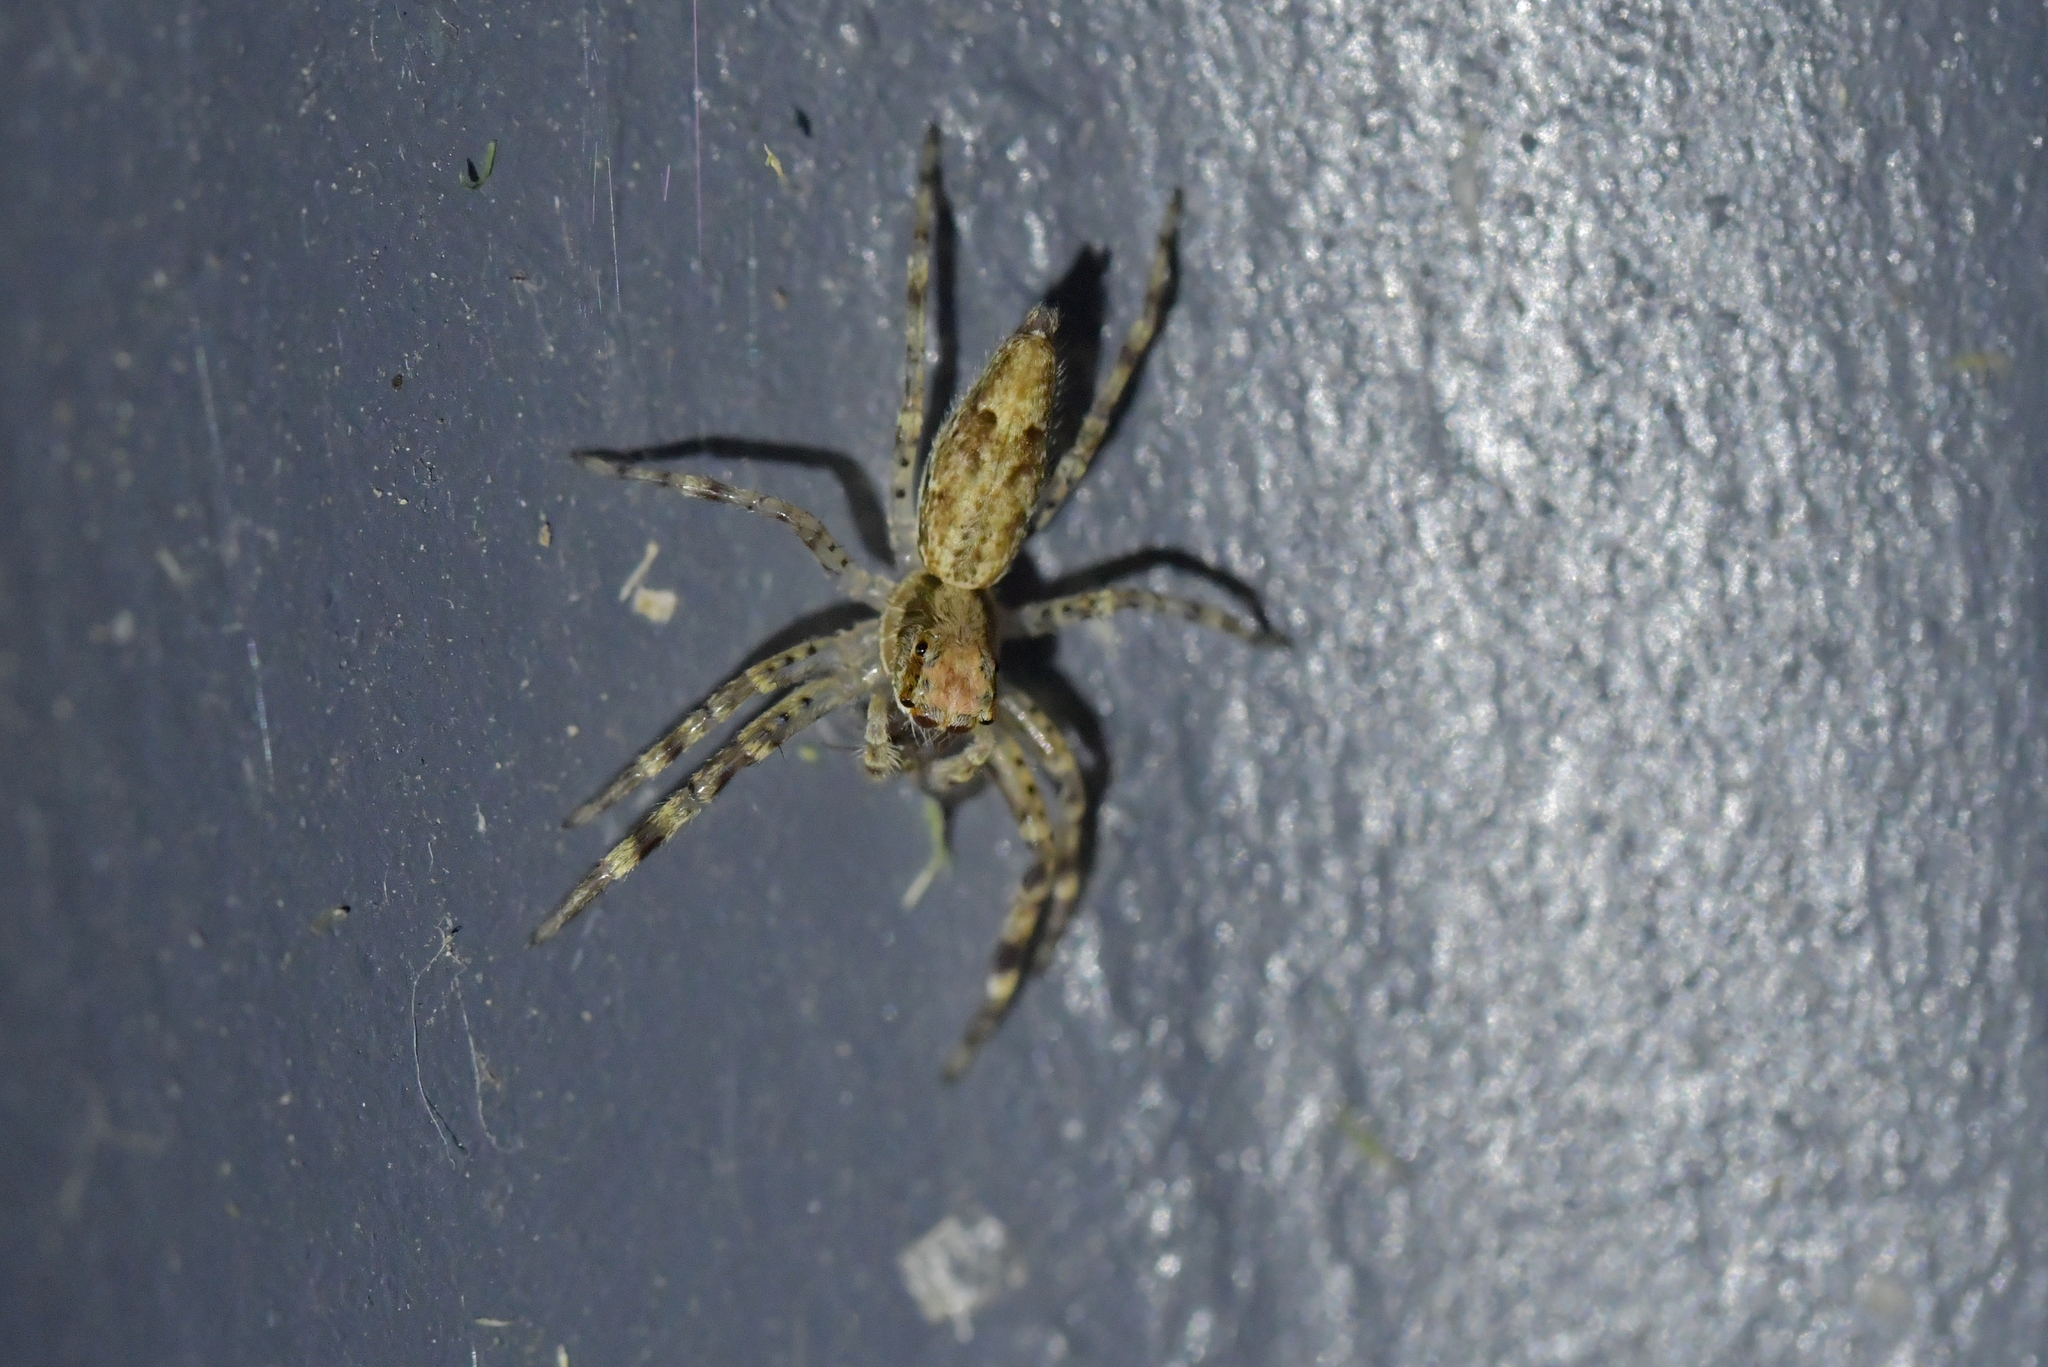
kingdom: Animalia
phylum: Arthropoda
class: Arachnida
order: Araneae
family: Salticidae
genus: Helpis
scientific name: Helpis minitabunda
